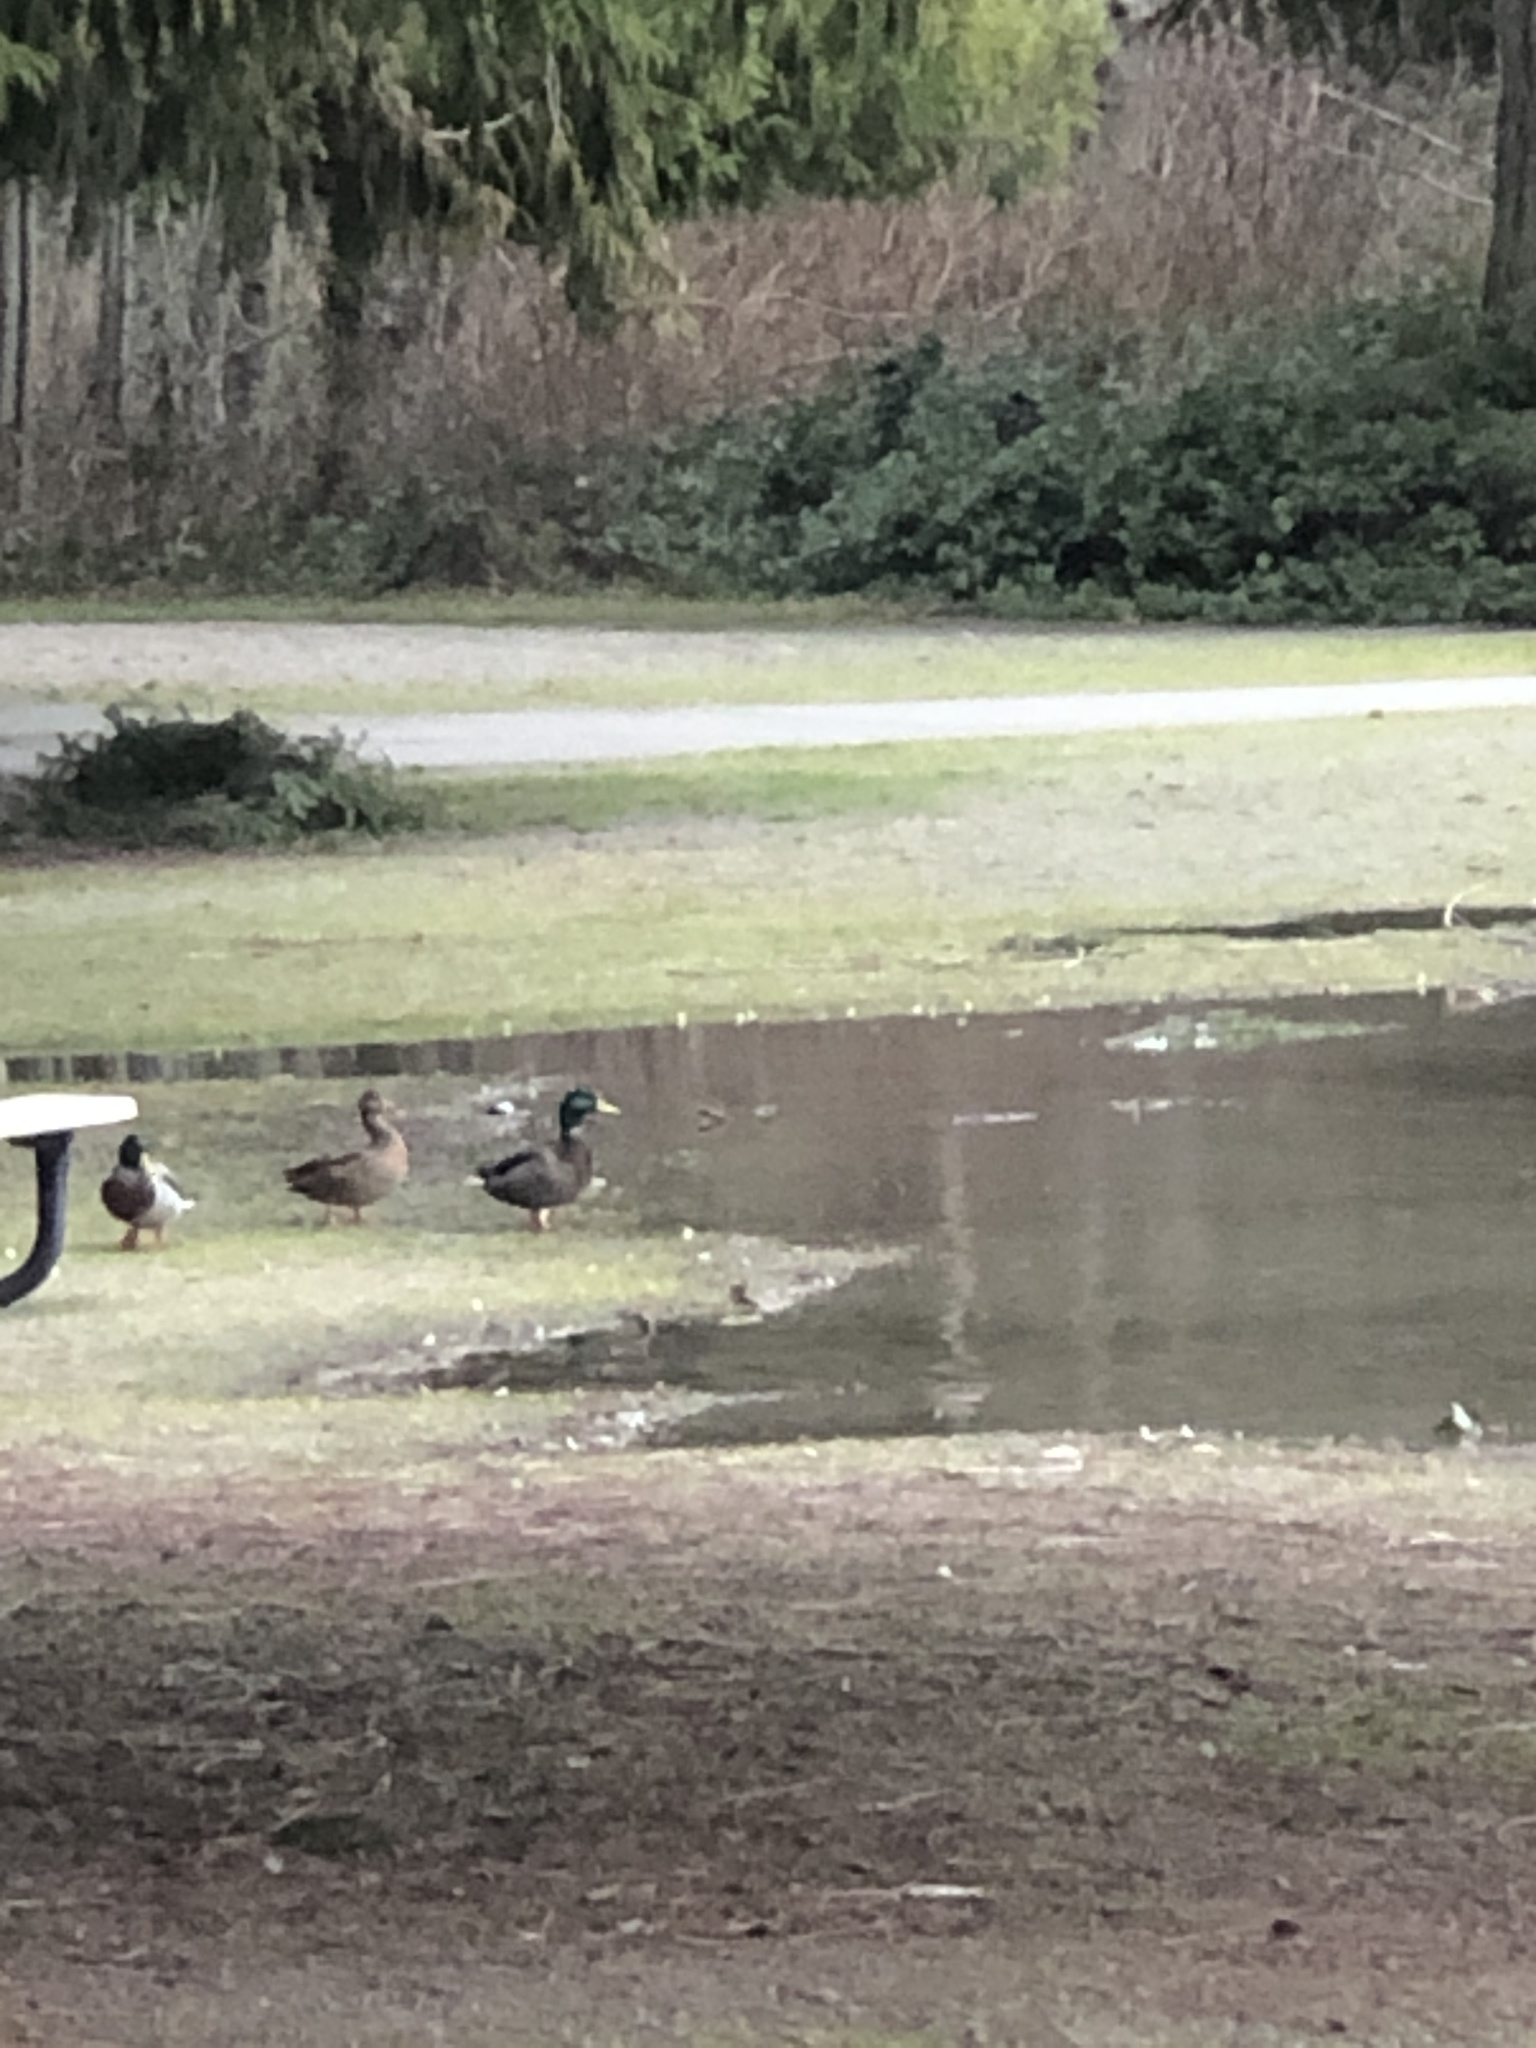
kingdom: Animalia
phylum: Chordata
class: Aves
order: Anseriformes
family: Anatidae
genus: Anas
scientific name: Anas platyrhynchos
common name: Mallard
